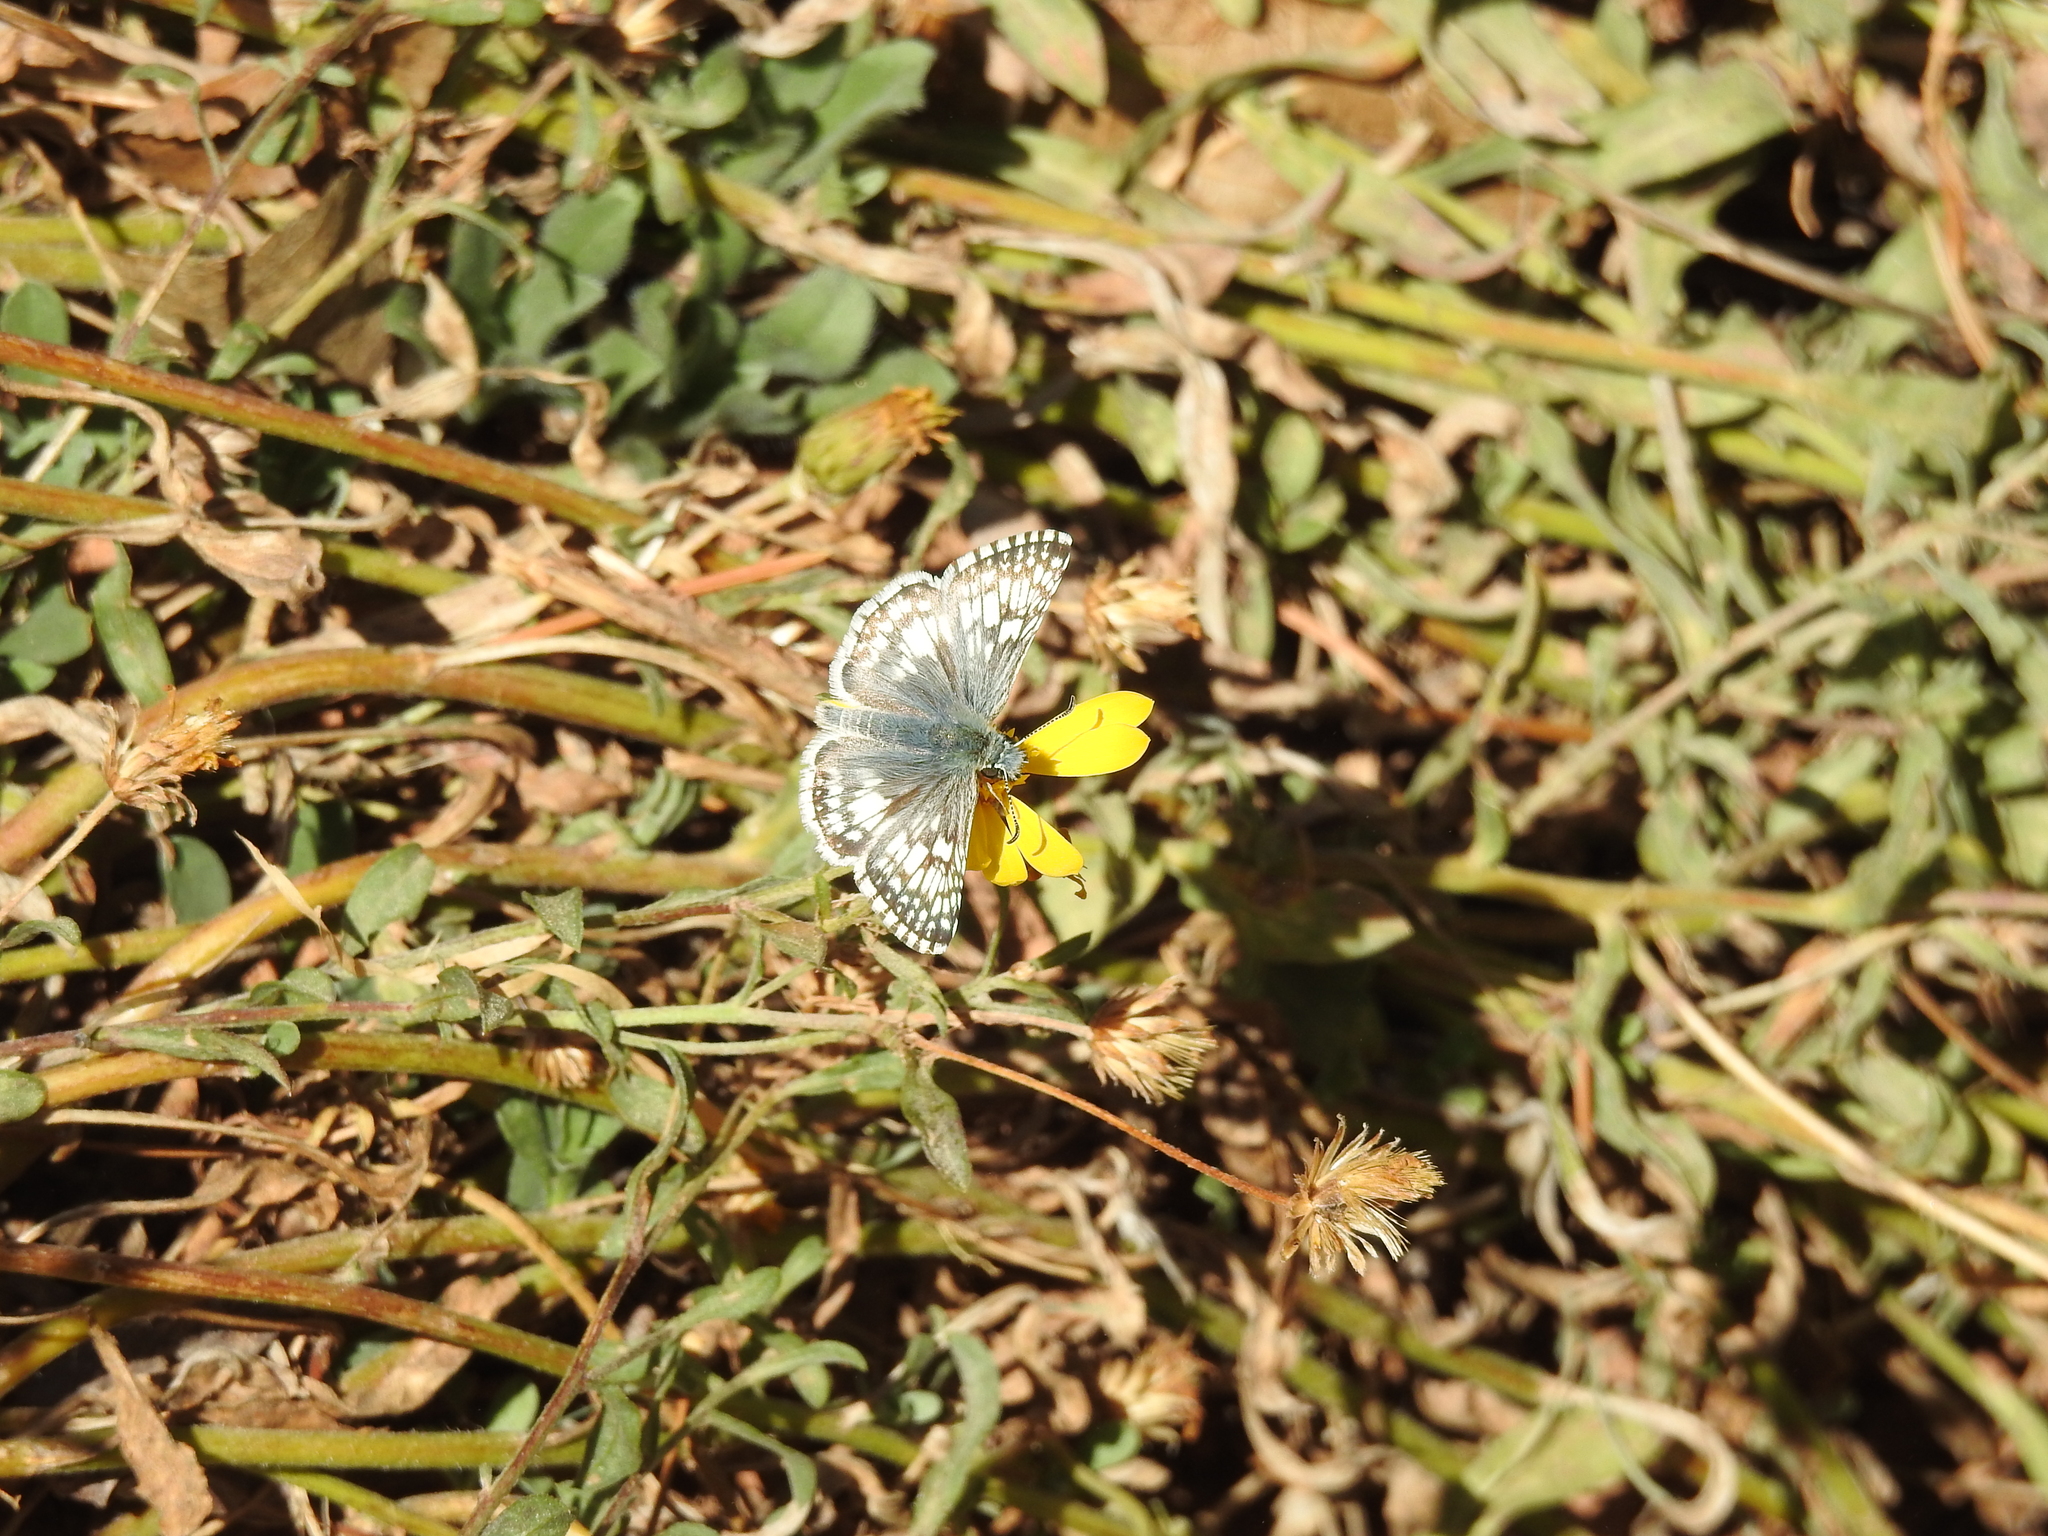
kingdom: Animalia
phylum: Arthropoda
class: Insecta
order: Lepidoptera
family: Hesperiidae
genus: Burnsius
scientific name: Burnsius communis
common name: Common checkered-skipper
